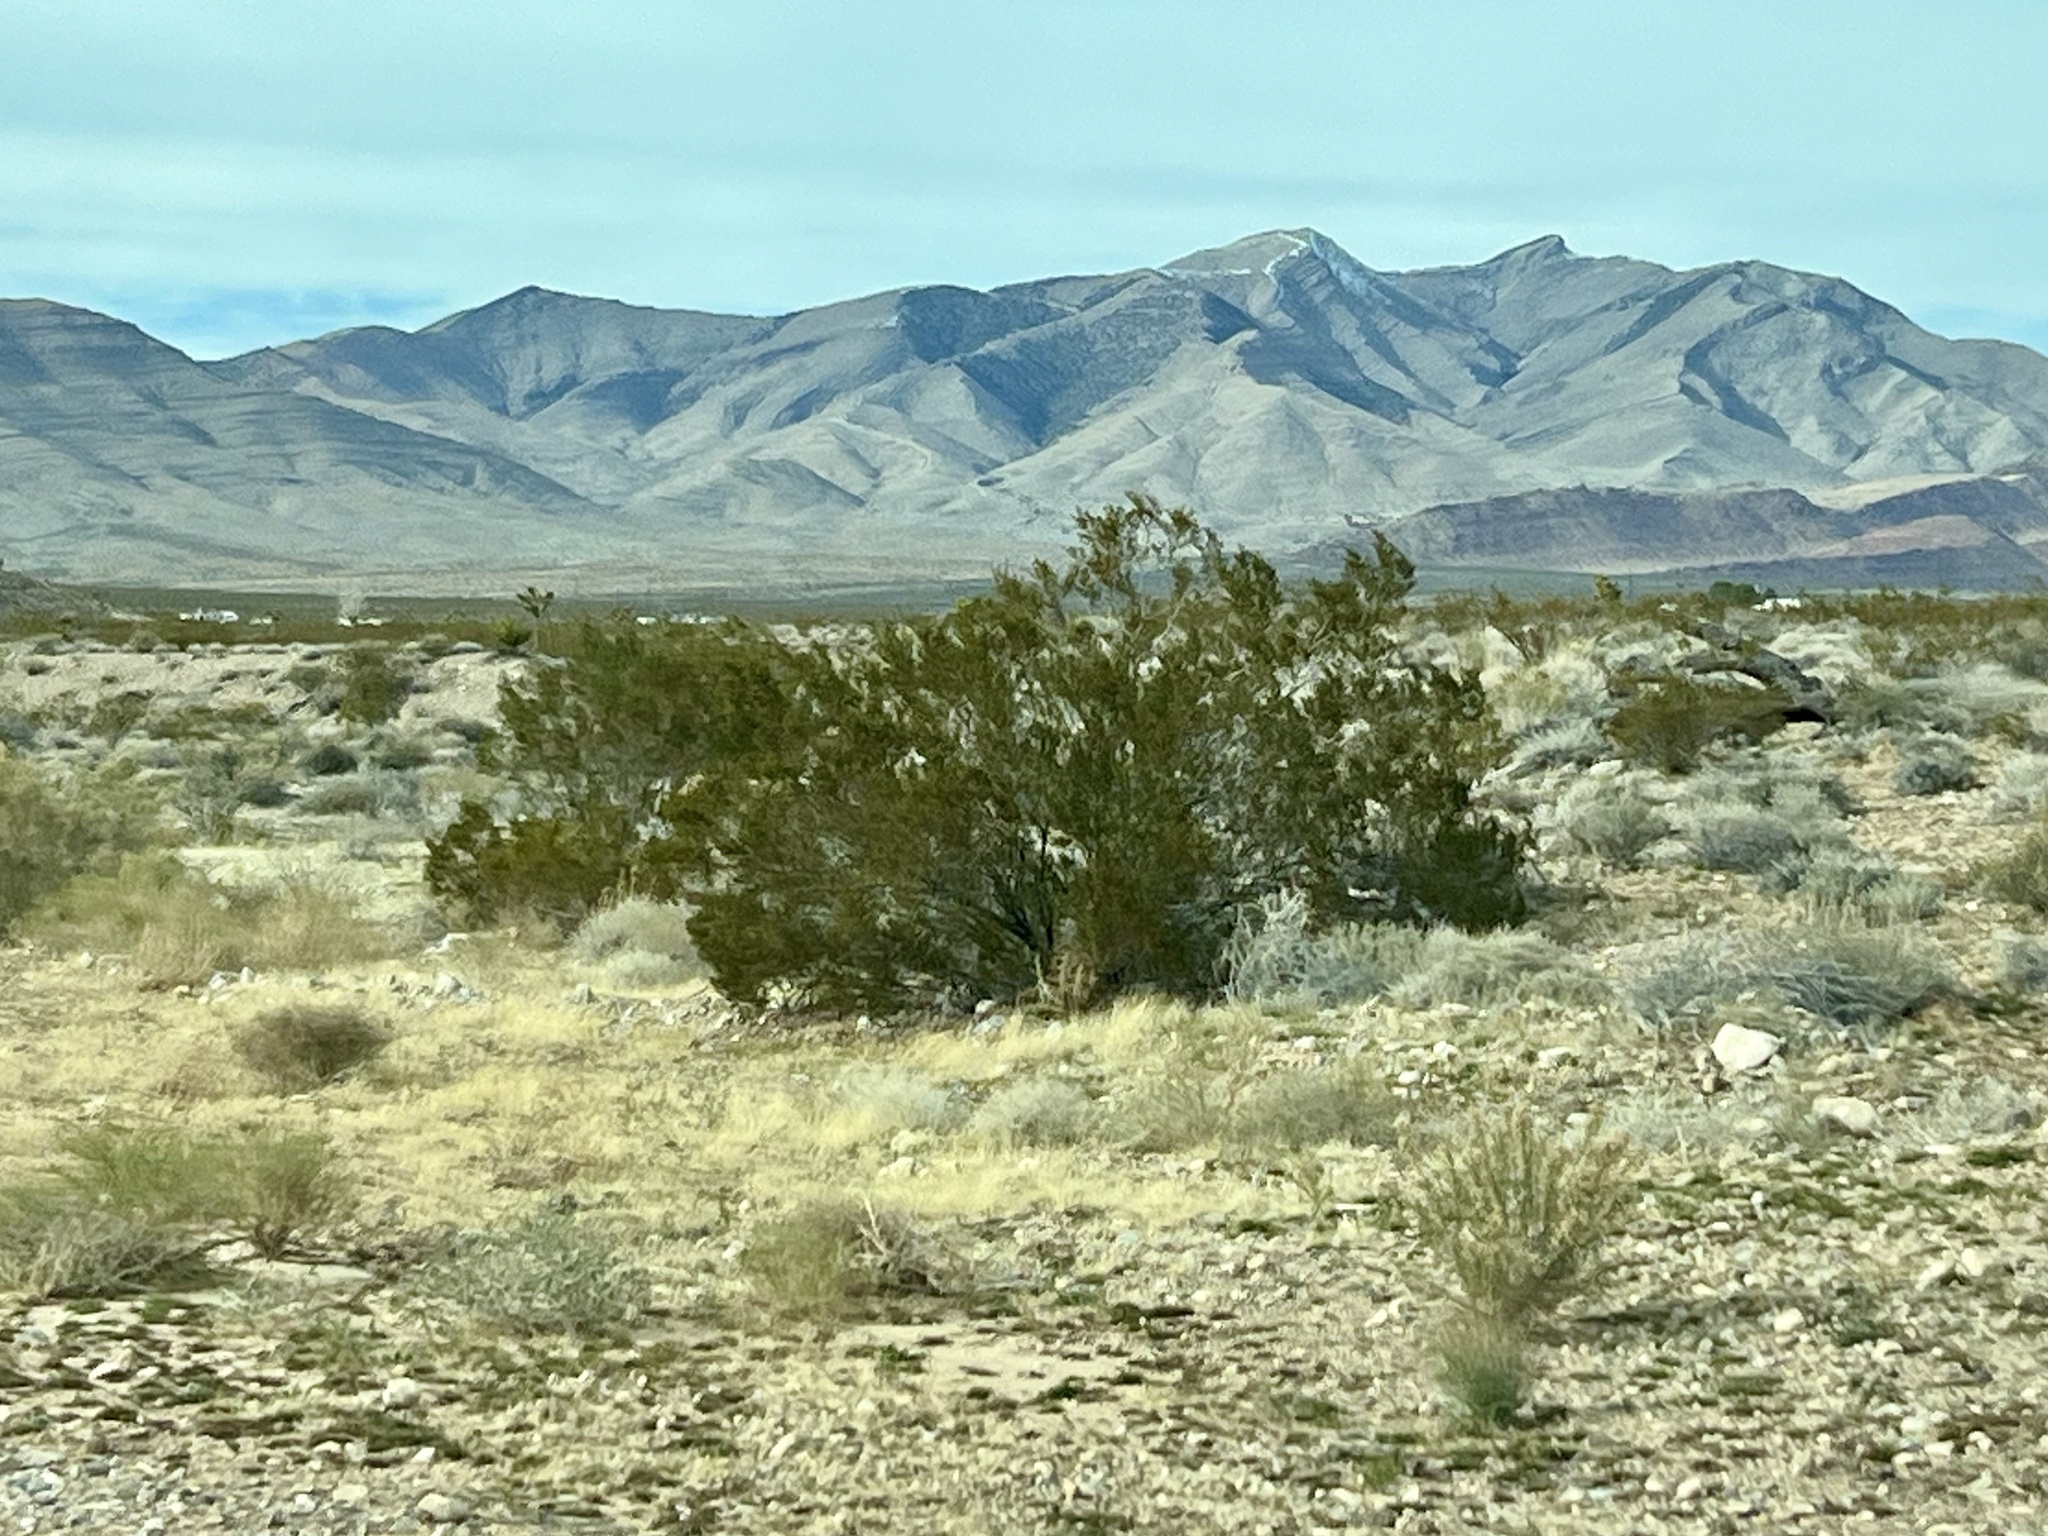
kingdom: Plantae
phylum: Tracheophyta
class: Magnoliopsida
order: Zygophyllales
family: Zygophyllaceae
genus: Larrea
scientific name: Larrea tridentata
